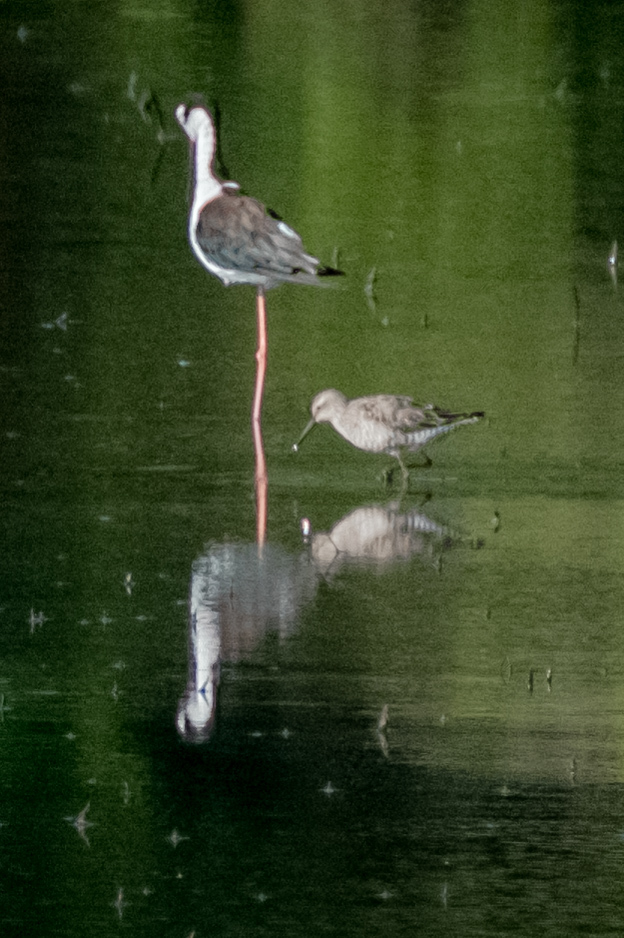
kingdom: Animalia
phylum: Chordata
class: Aves
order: Charadriiformes
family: Scolopacidae
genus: Calidris
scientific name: Calidris himantopus
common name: Stilt sandpiper
